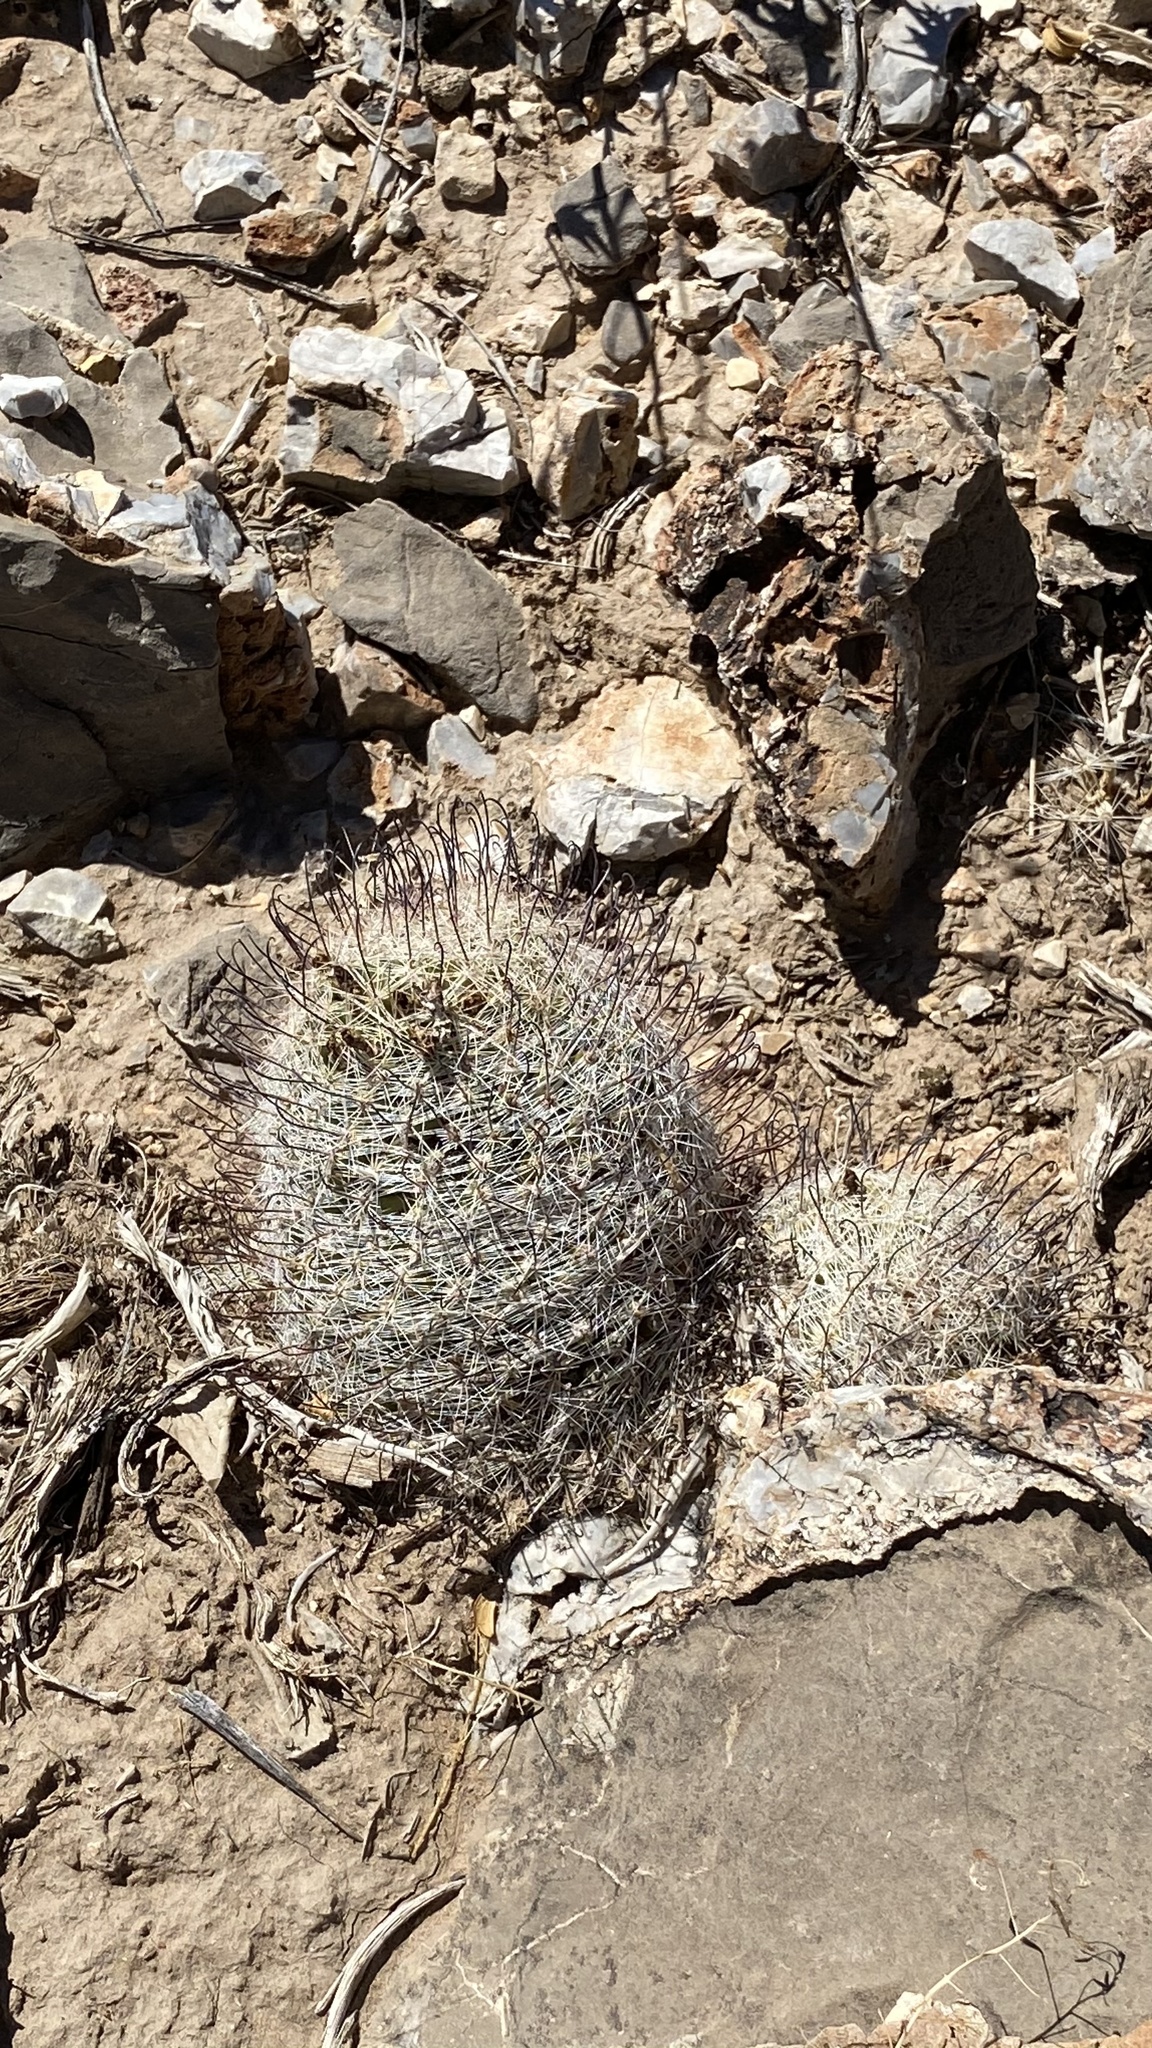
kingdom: Plantae
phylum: Tracheophyta
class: Magnoliopsida
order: Caryophyllales
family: Cactaceae
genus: Cochemiea
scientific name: Cochemiea grahamii
